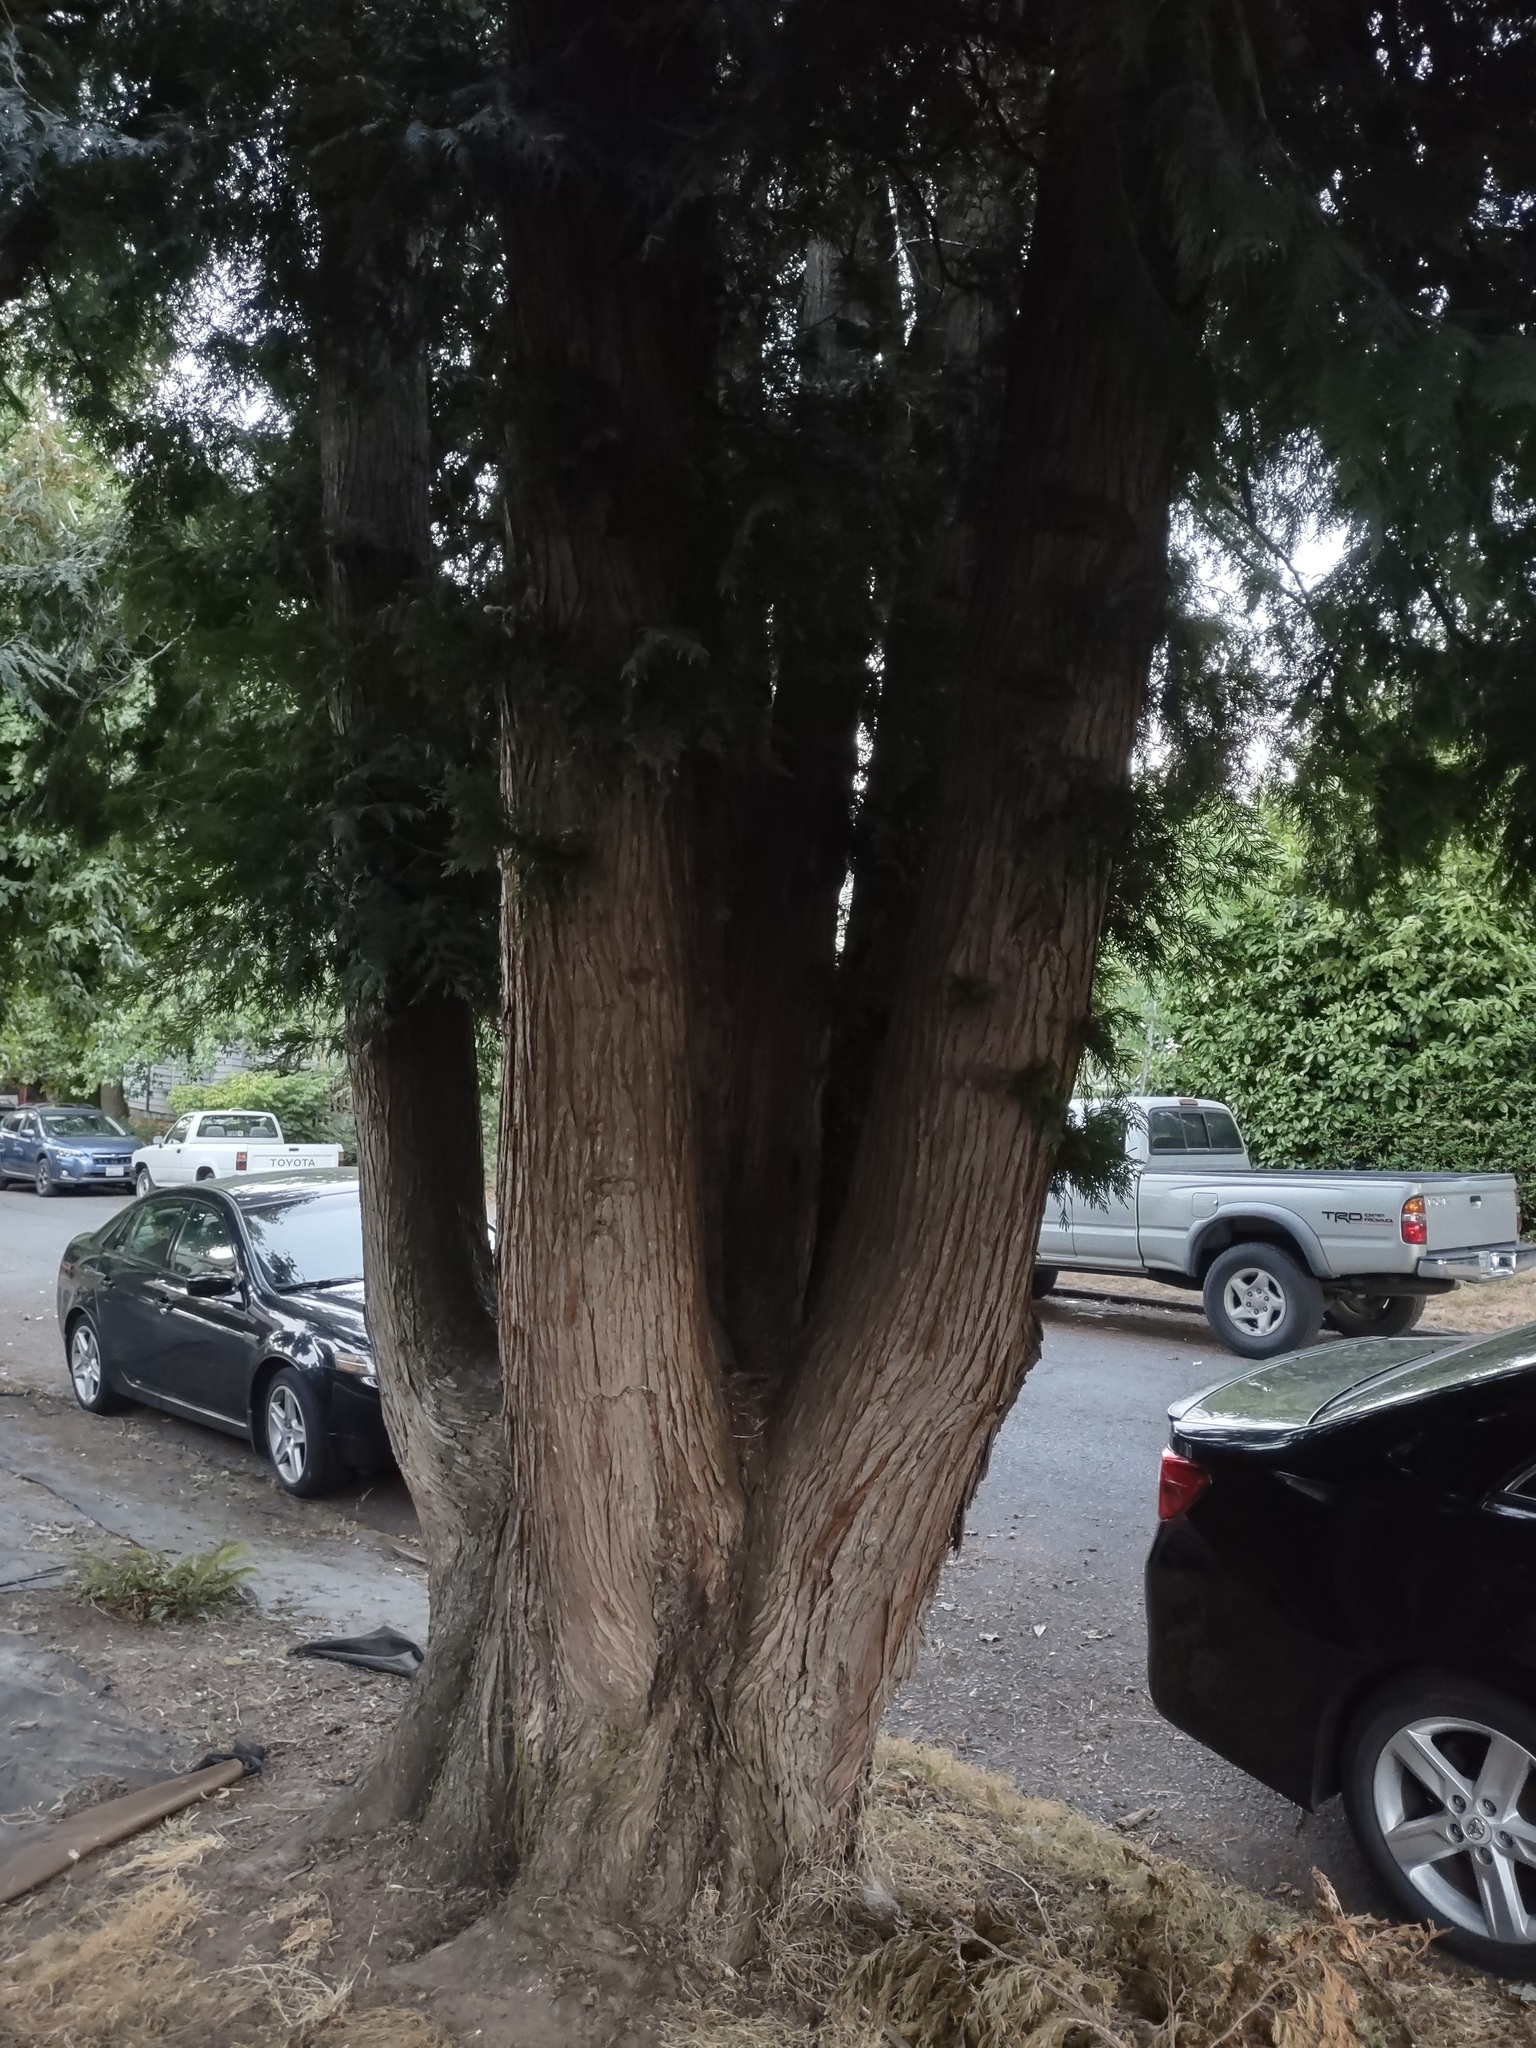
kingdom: Plantae
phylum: Tracheophyta
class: Pinopsida
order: Pinales
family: Cupressaceae
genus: Thuja
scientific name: Thuja plicata
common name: Western red-cedar
